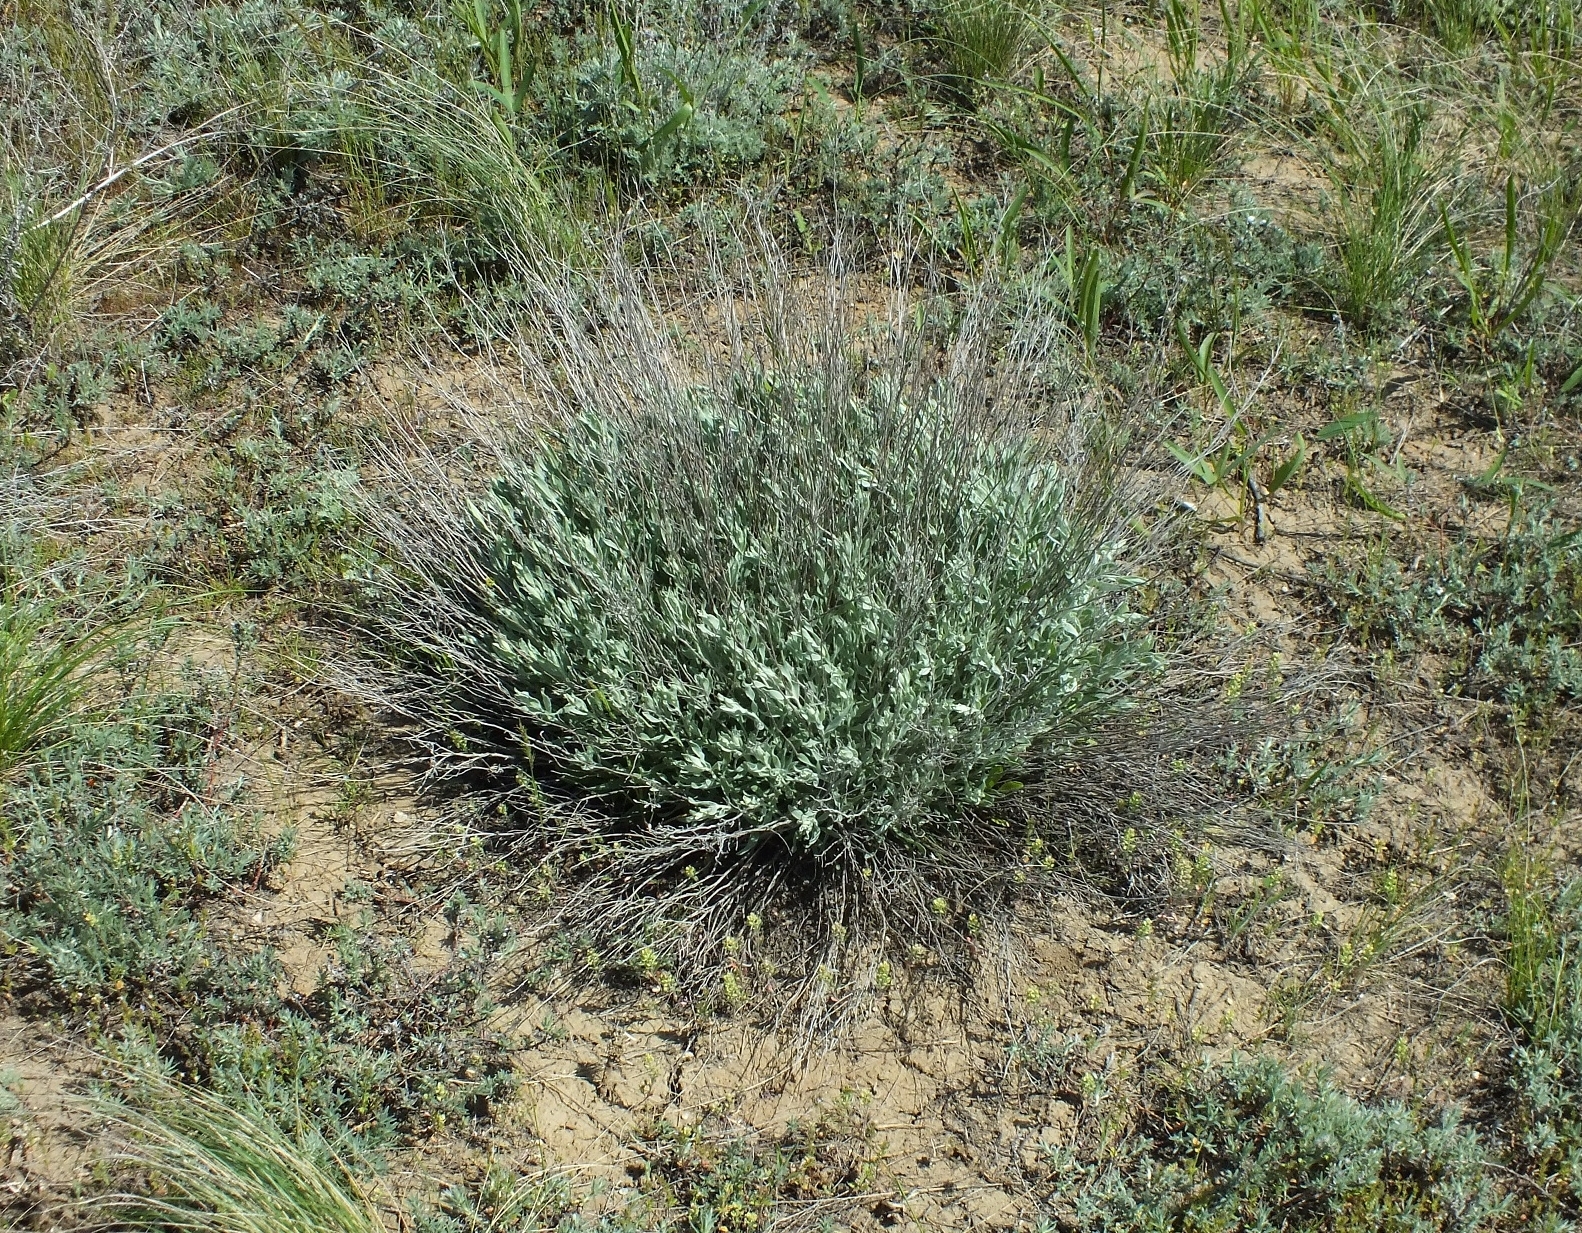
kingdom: Plantae
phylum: Tracheophyta
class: Magnoliopsida
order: Asterales
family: Asteraceae
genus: Galatella
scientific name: Galatella villosa
